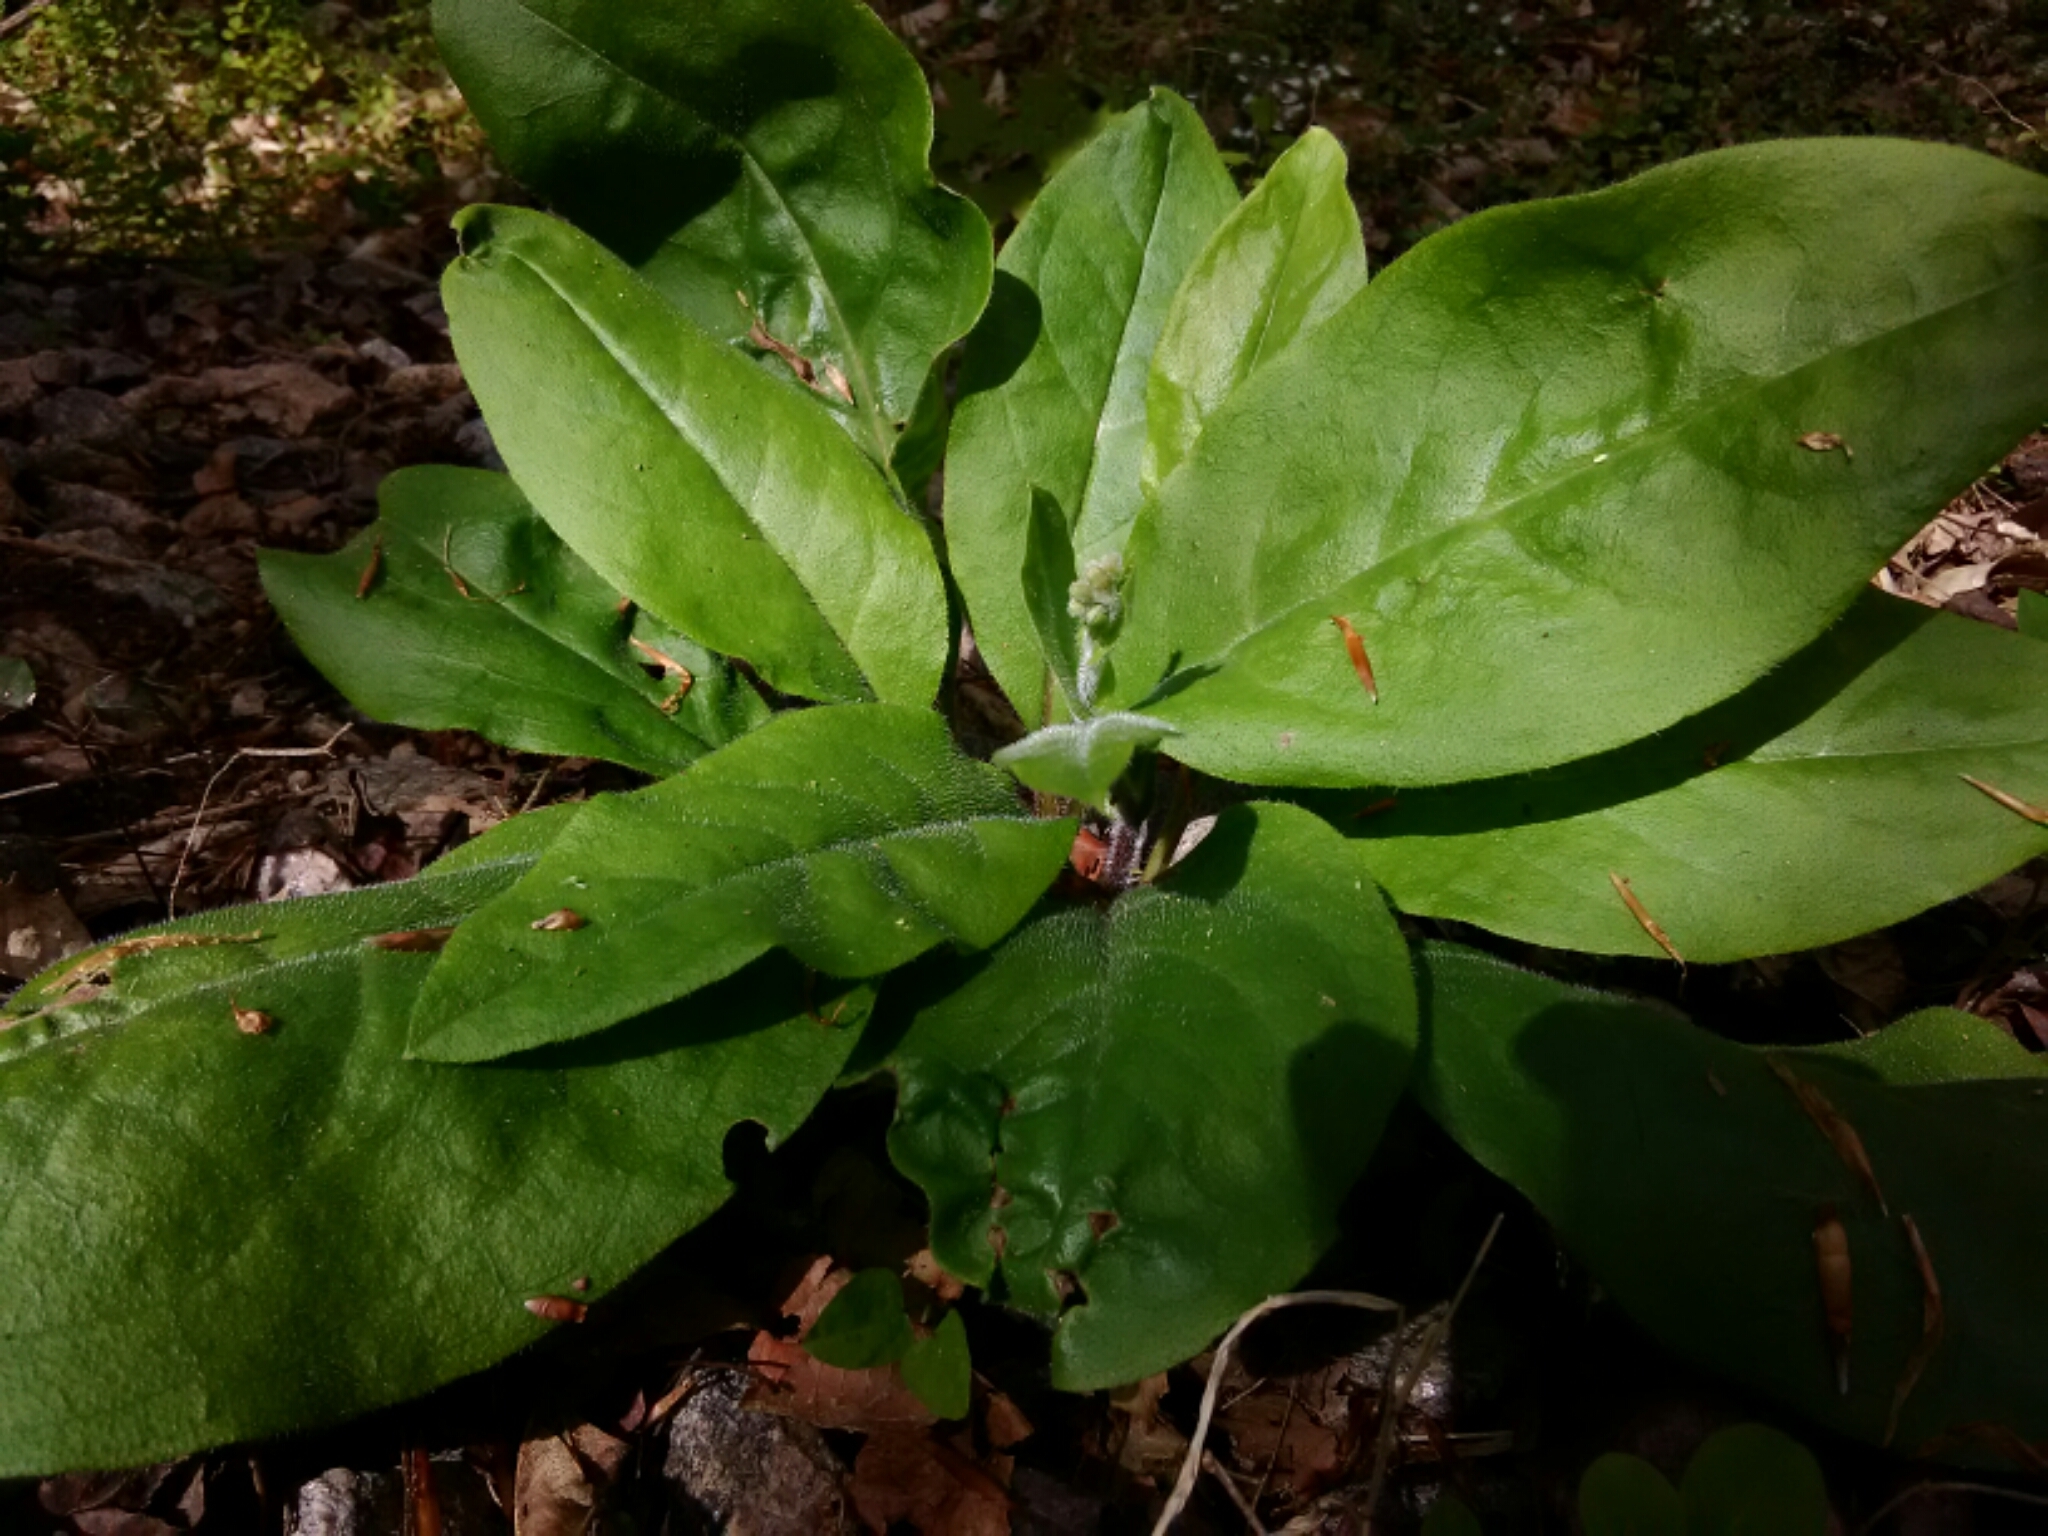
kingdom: Plantae
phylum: Tracheophyta
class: Magnoliopsida
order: Boraginales
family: Boraginaceae
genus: Andersonglossum
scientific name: Andersonglossum virginianum
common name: Wild comfrey
